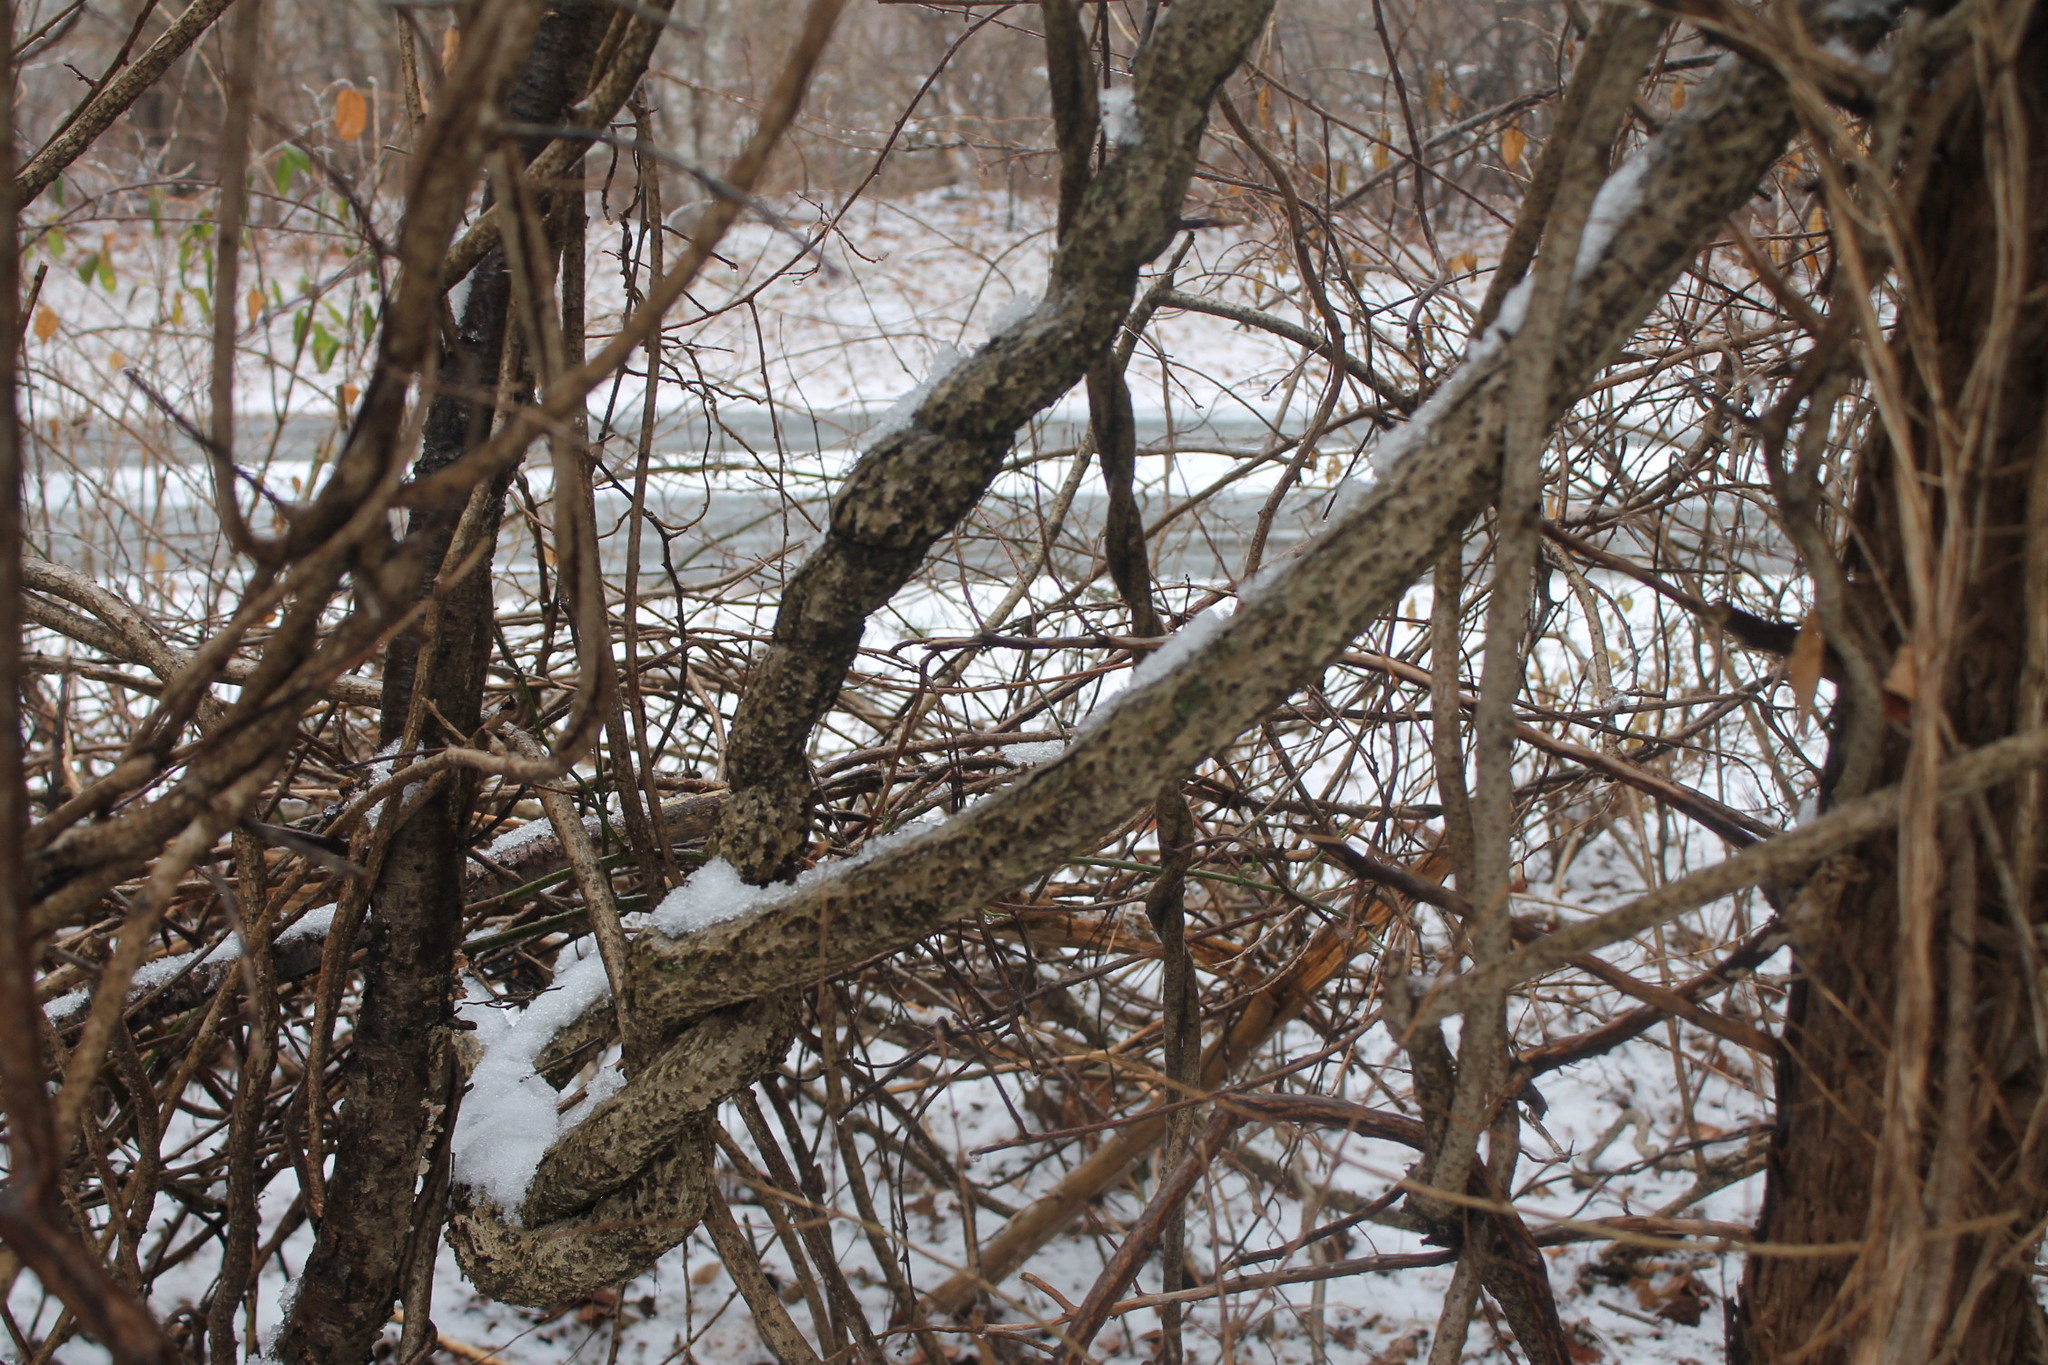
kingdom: Plantae
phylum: Tracheophyta
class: Magnoliopsida
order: Celastrales
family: Celastraceae
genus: Celastrus
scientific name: Celastrus orbiculatus
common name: Oriental bittersweet
